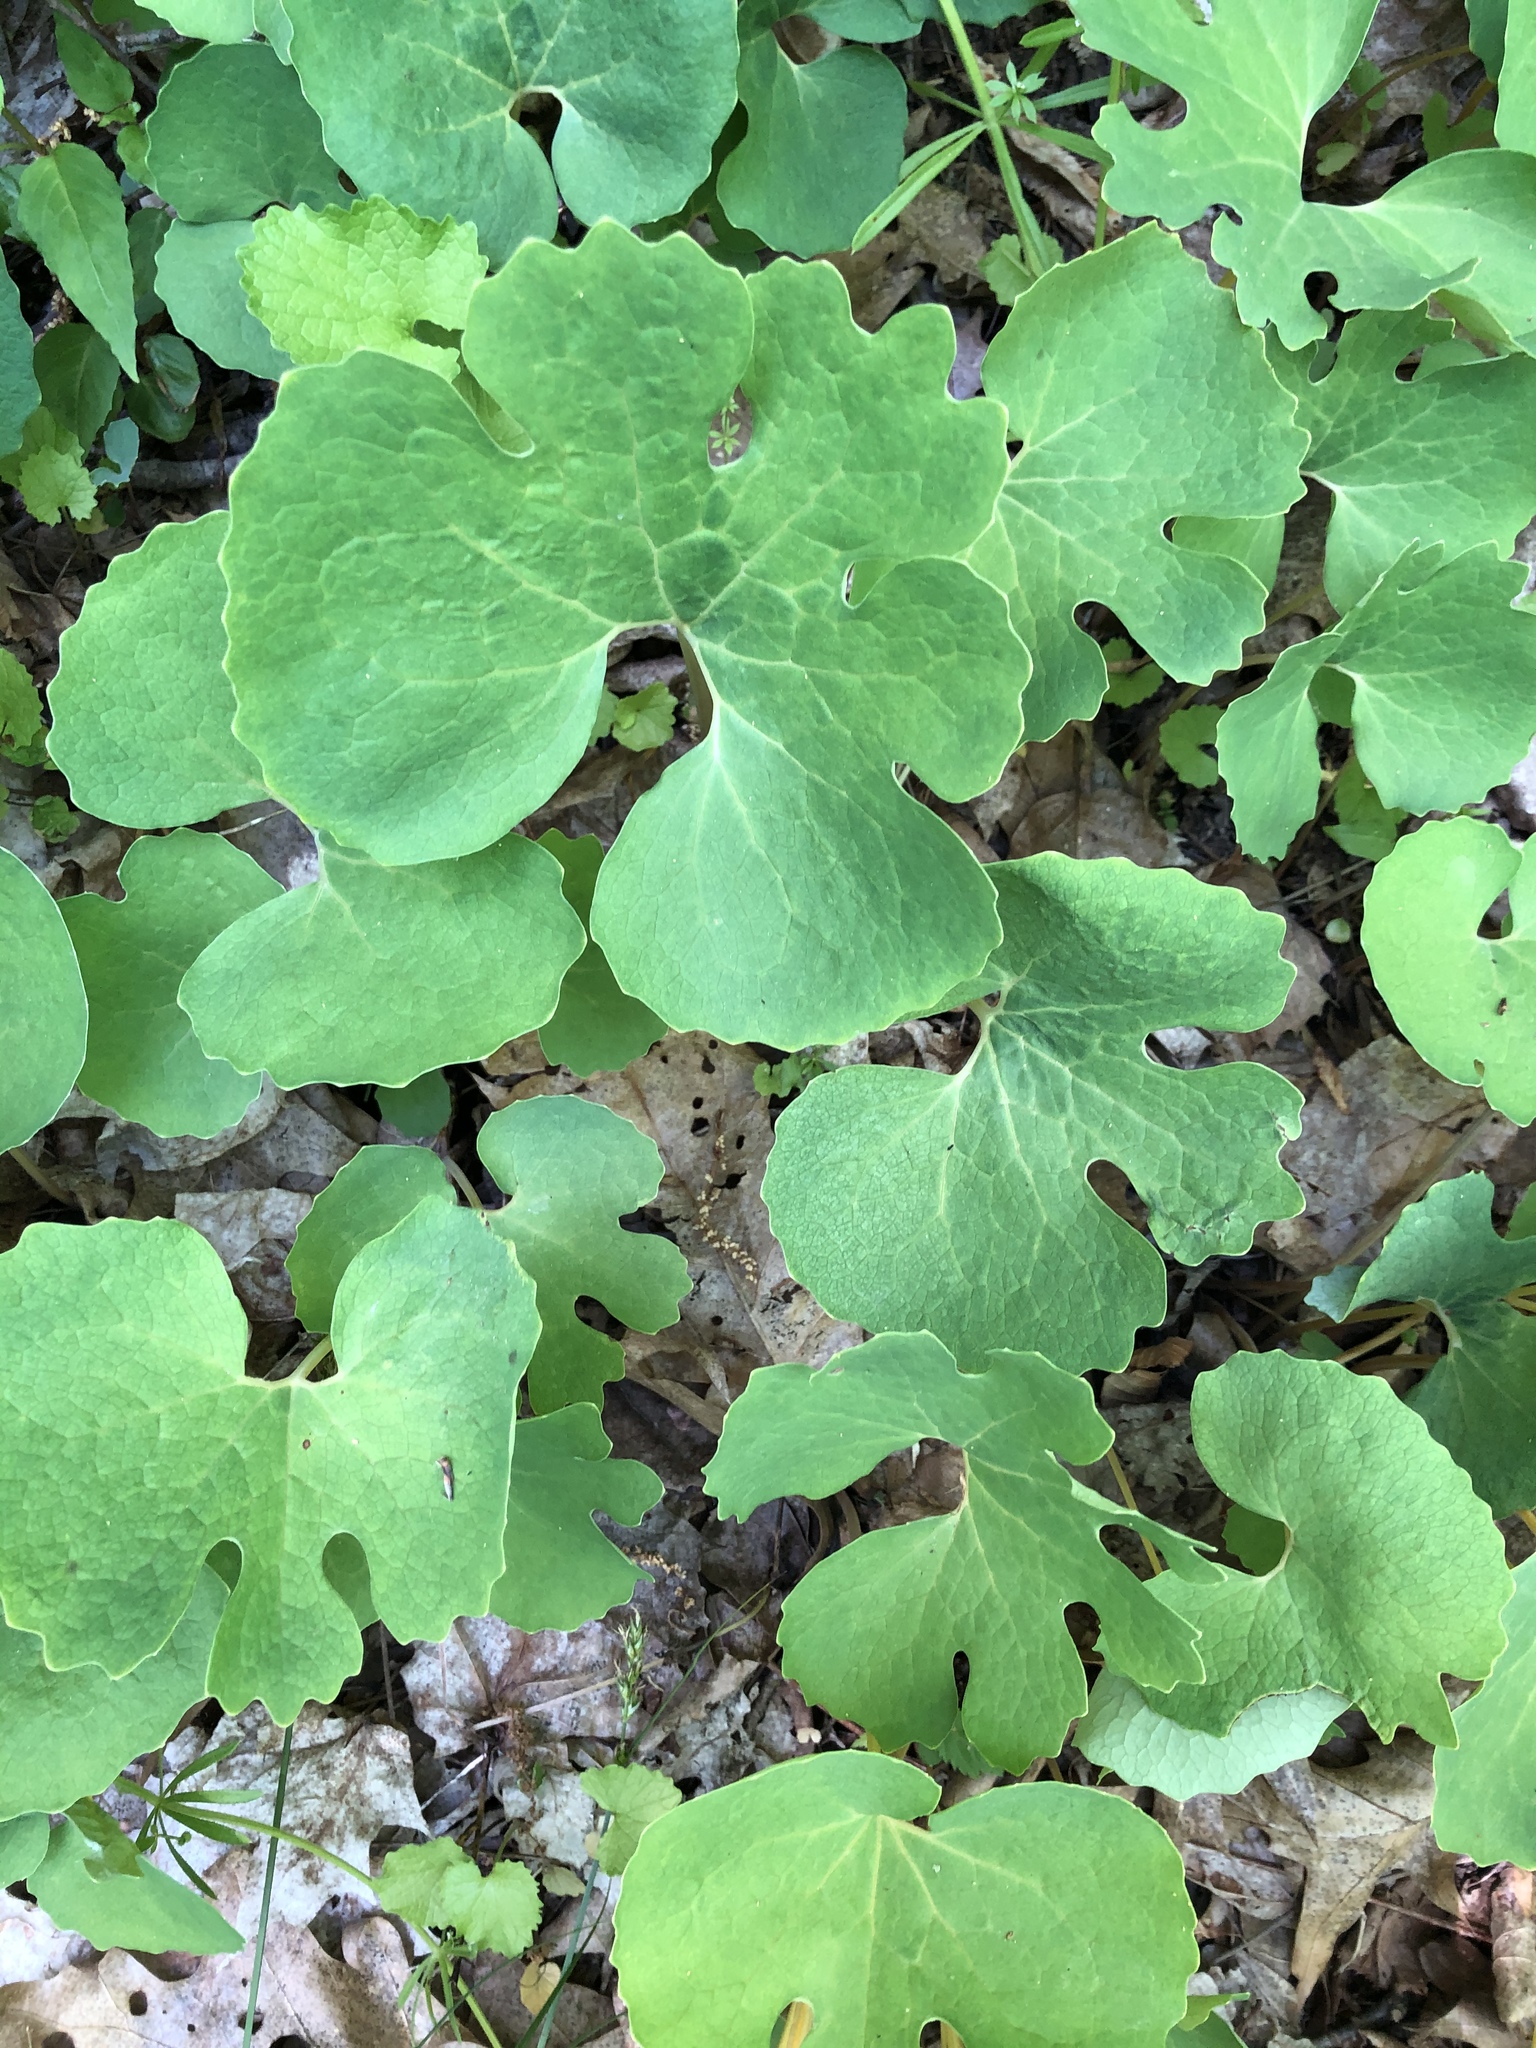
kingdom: Plantae
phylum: Tracheophyta
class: Magnoliopsida
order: Ranunculales
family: Papaveraceae
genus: Sanguinaria
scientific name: Sanguinaria canadensis
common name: Bloodroot
